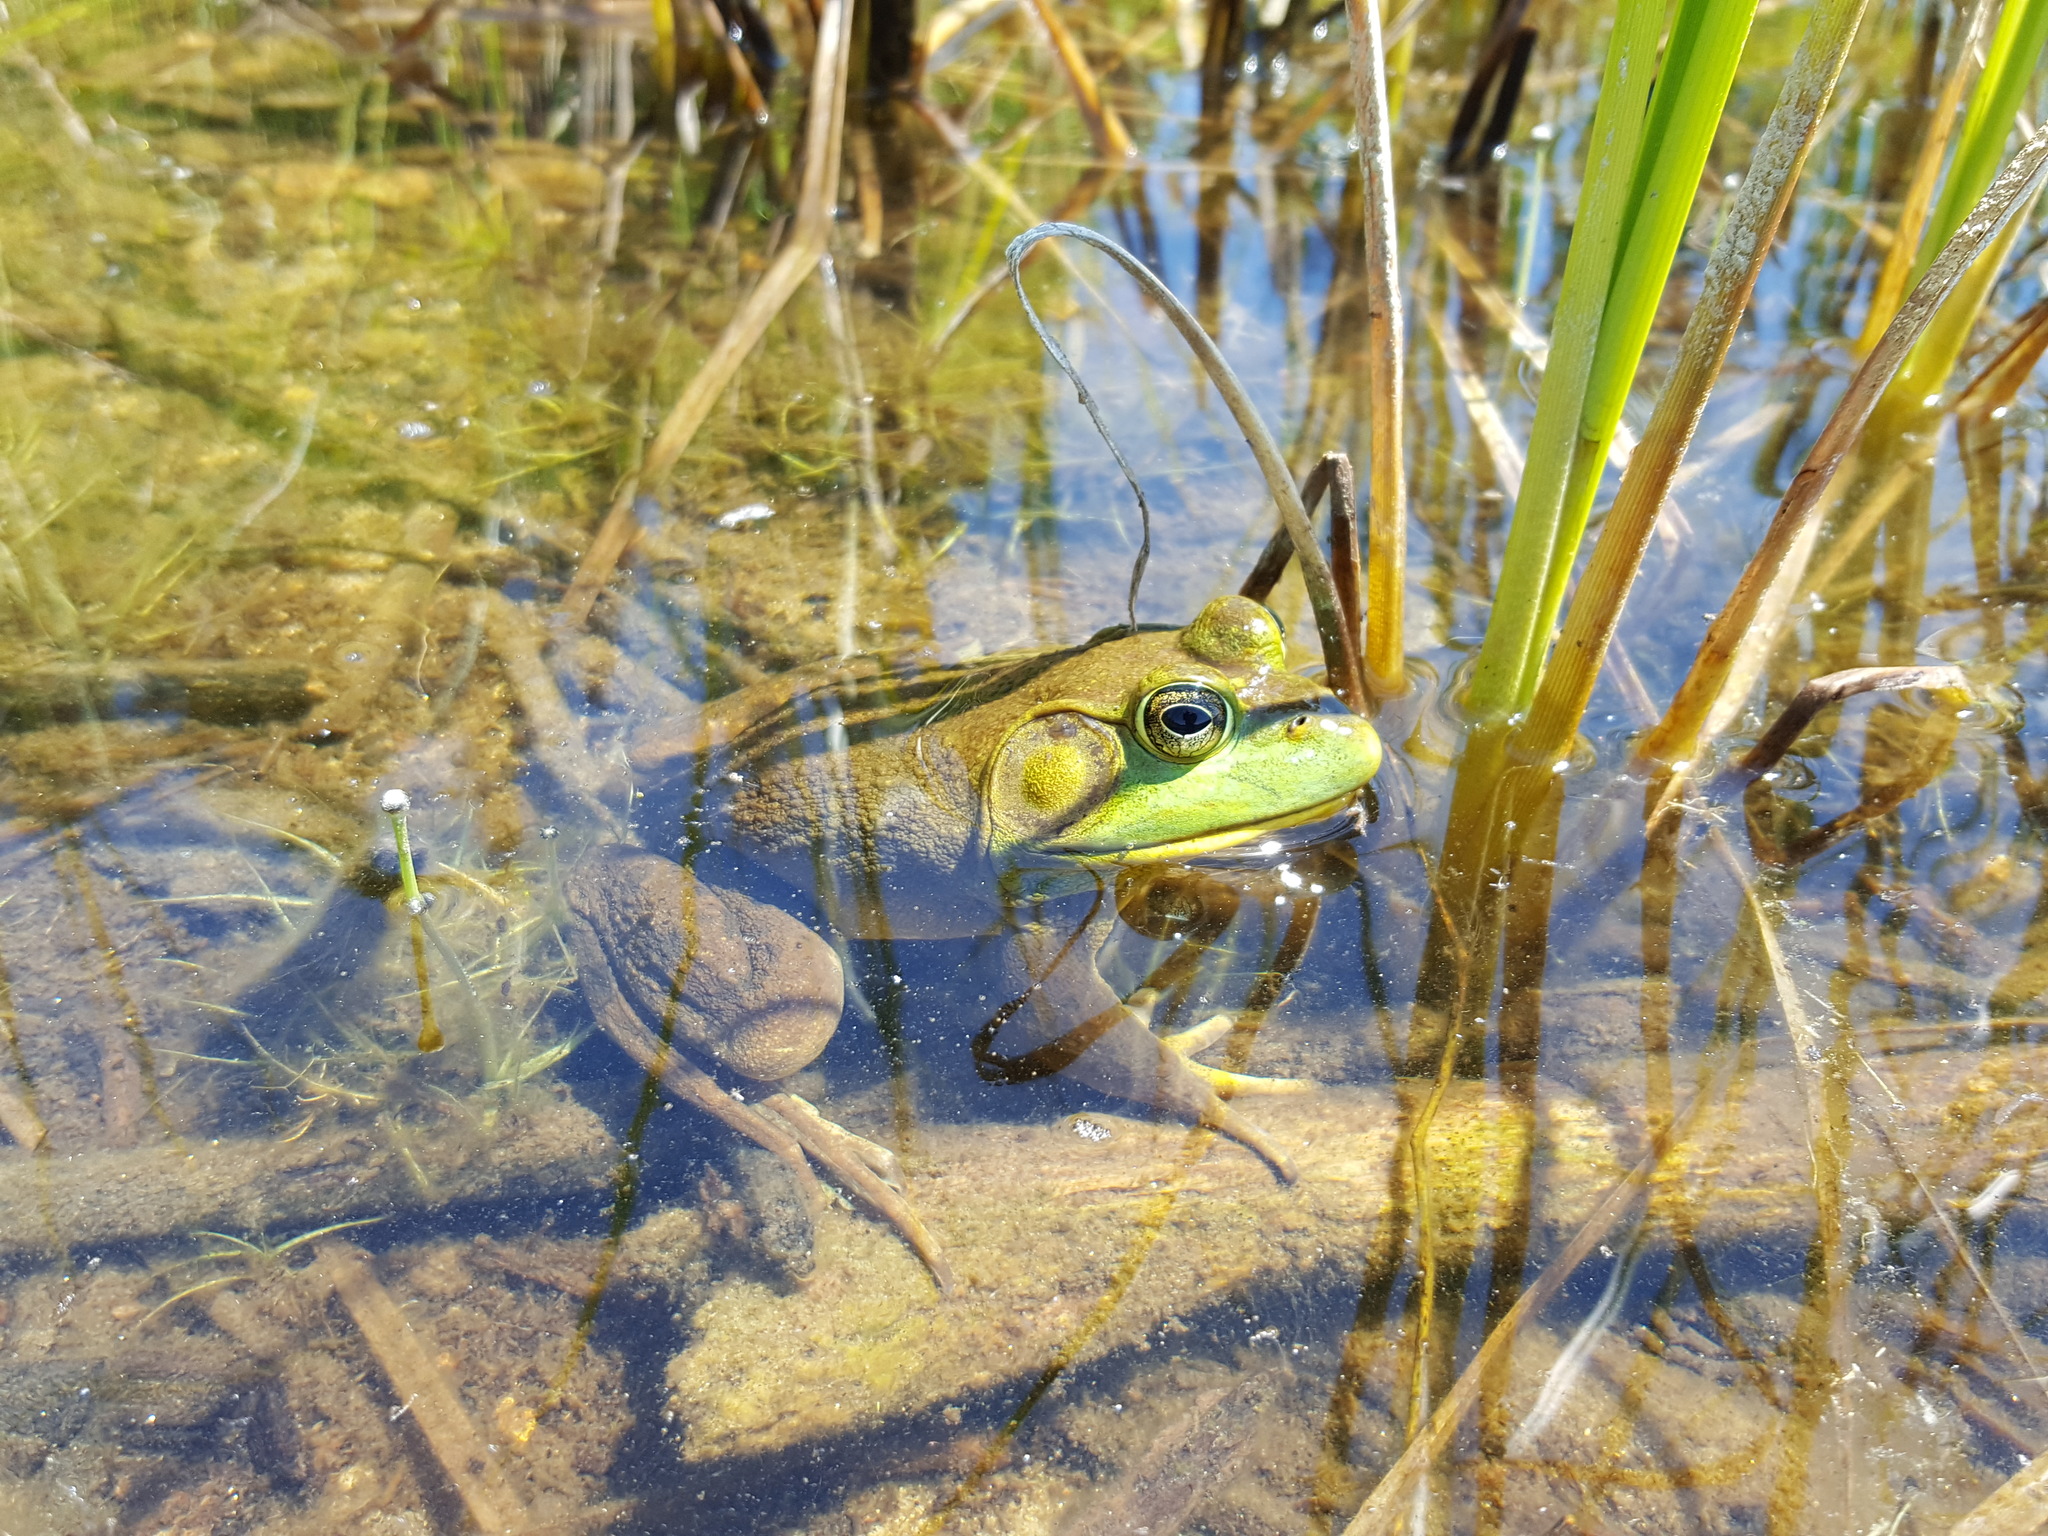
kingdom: Animalia
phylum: Chordata
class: Amphibia
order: Anura
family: Ranidae
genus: Lithobates
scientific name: Lithobates catesbeianus
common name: American bullfrog
